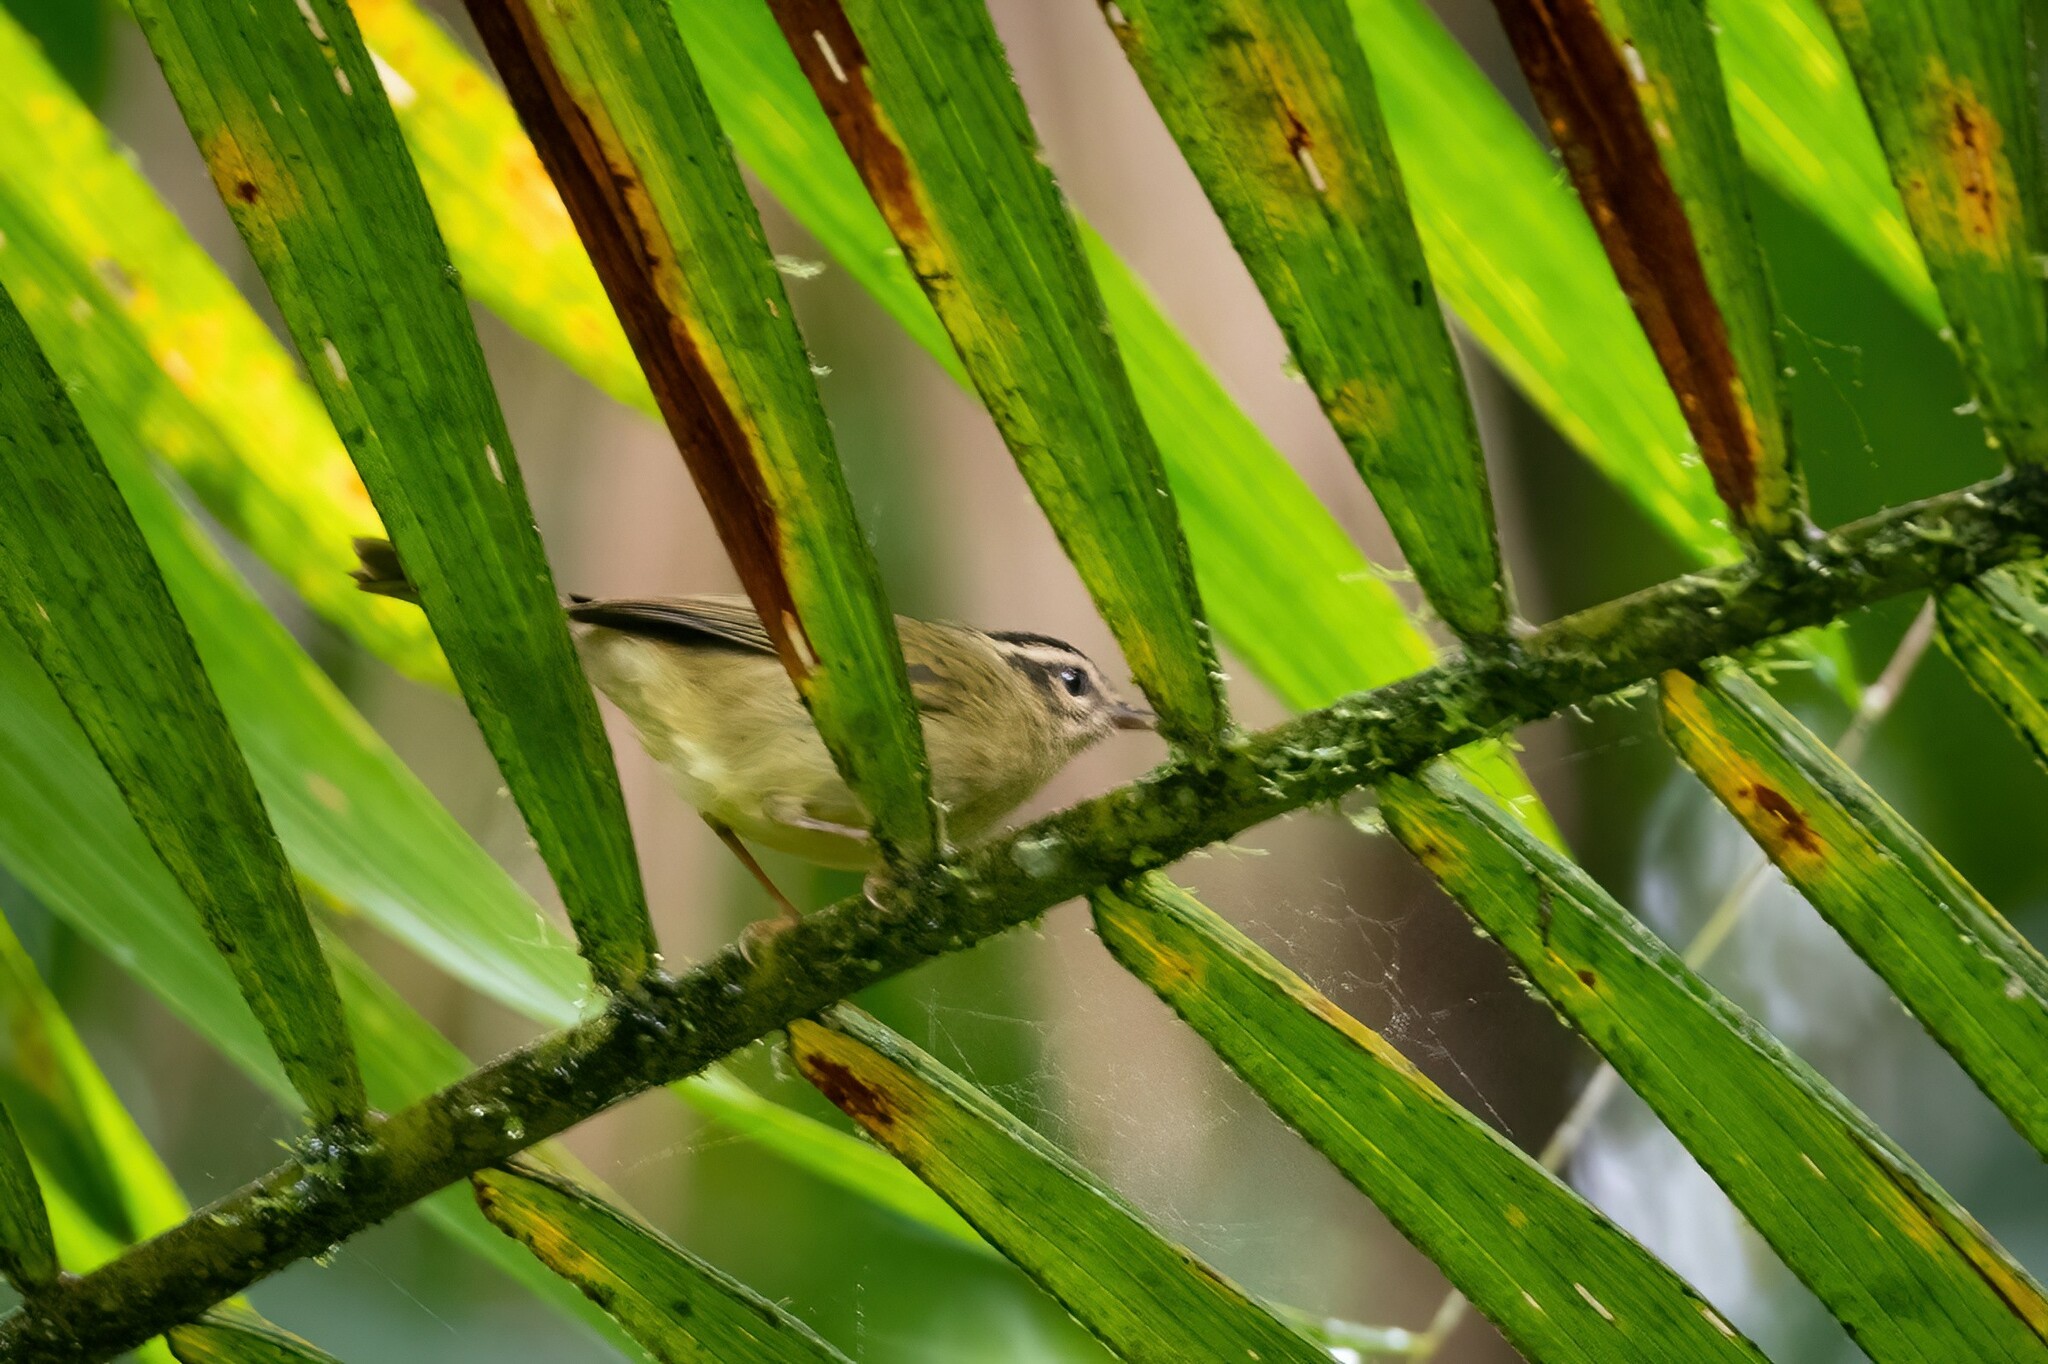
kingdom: Animalia
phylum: Chordata
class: Aves
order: Passeriformes
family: Parulidae
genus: Basileuterus
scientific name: Basileuterus tristriatus
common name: Three-striped warbler
